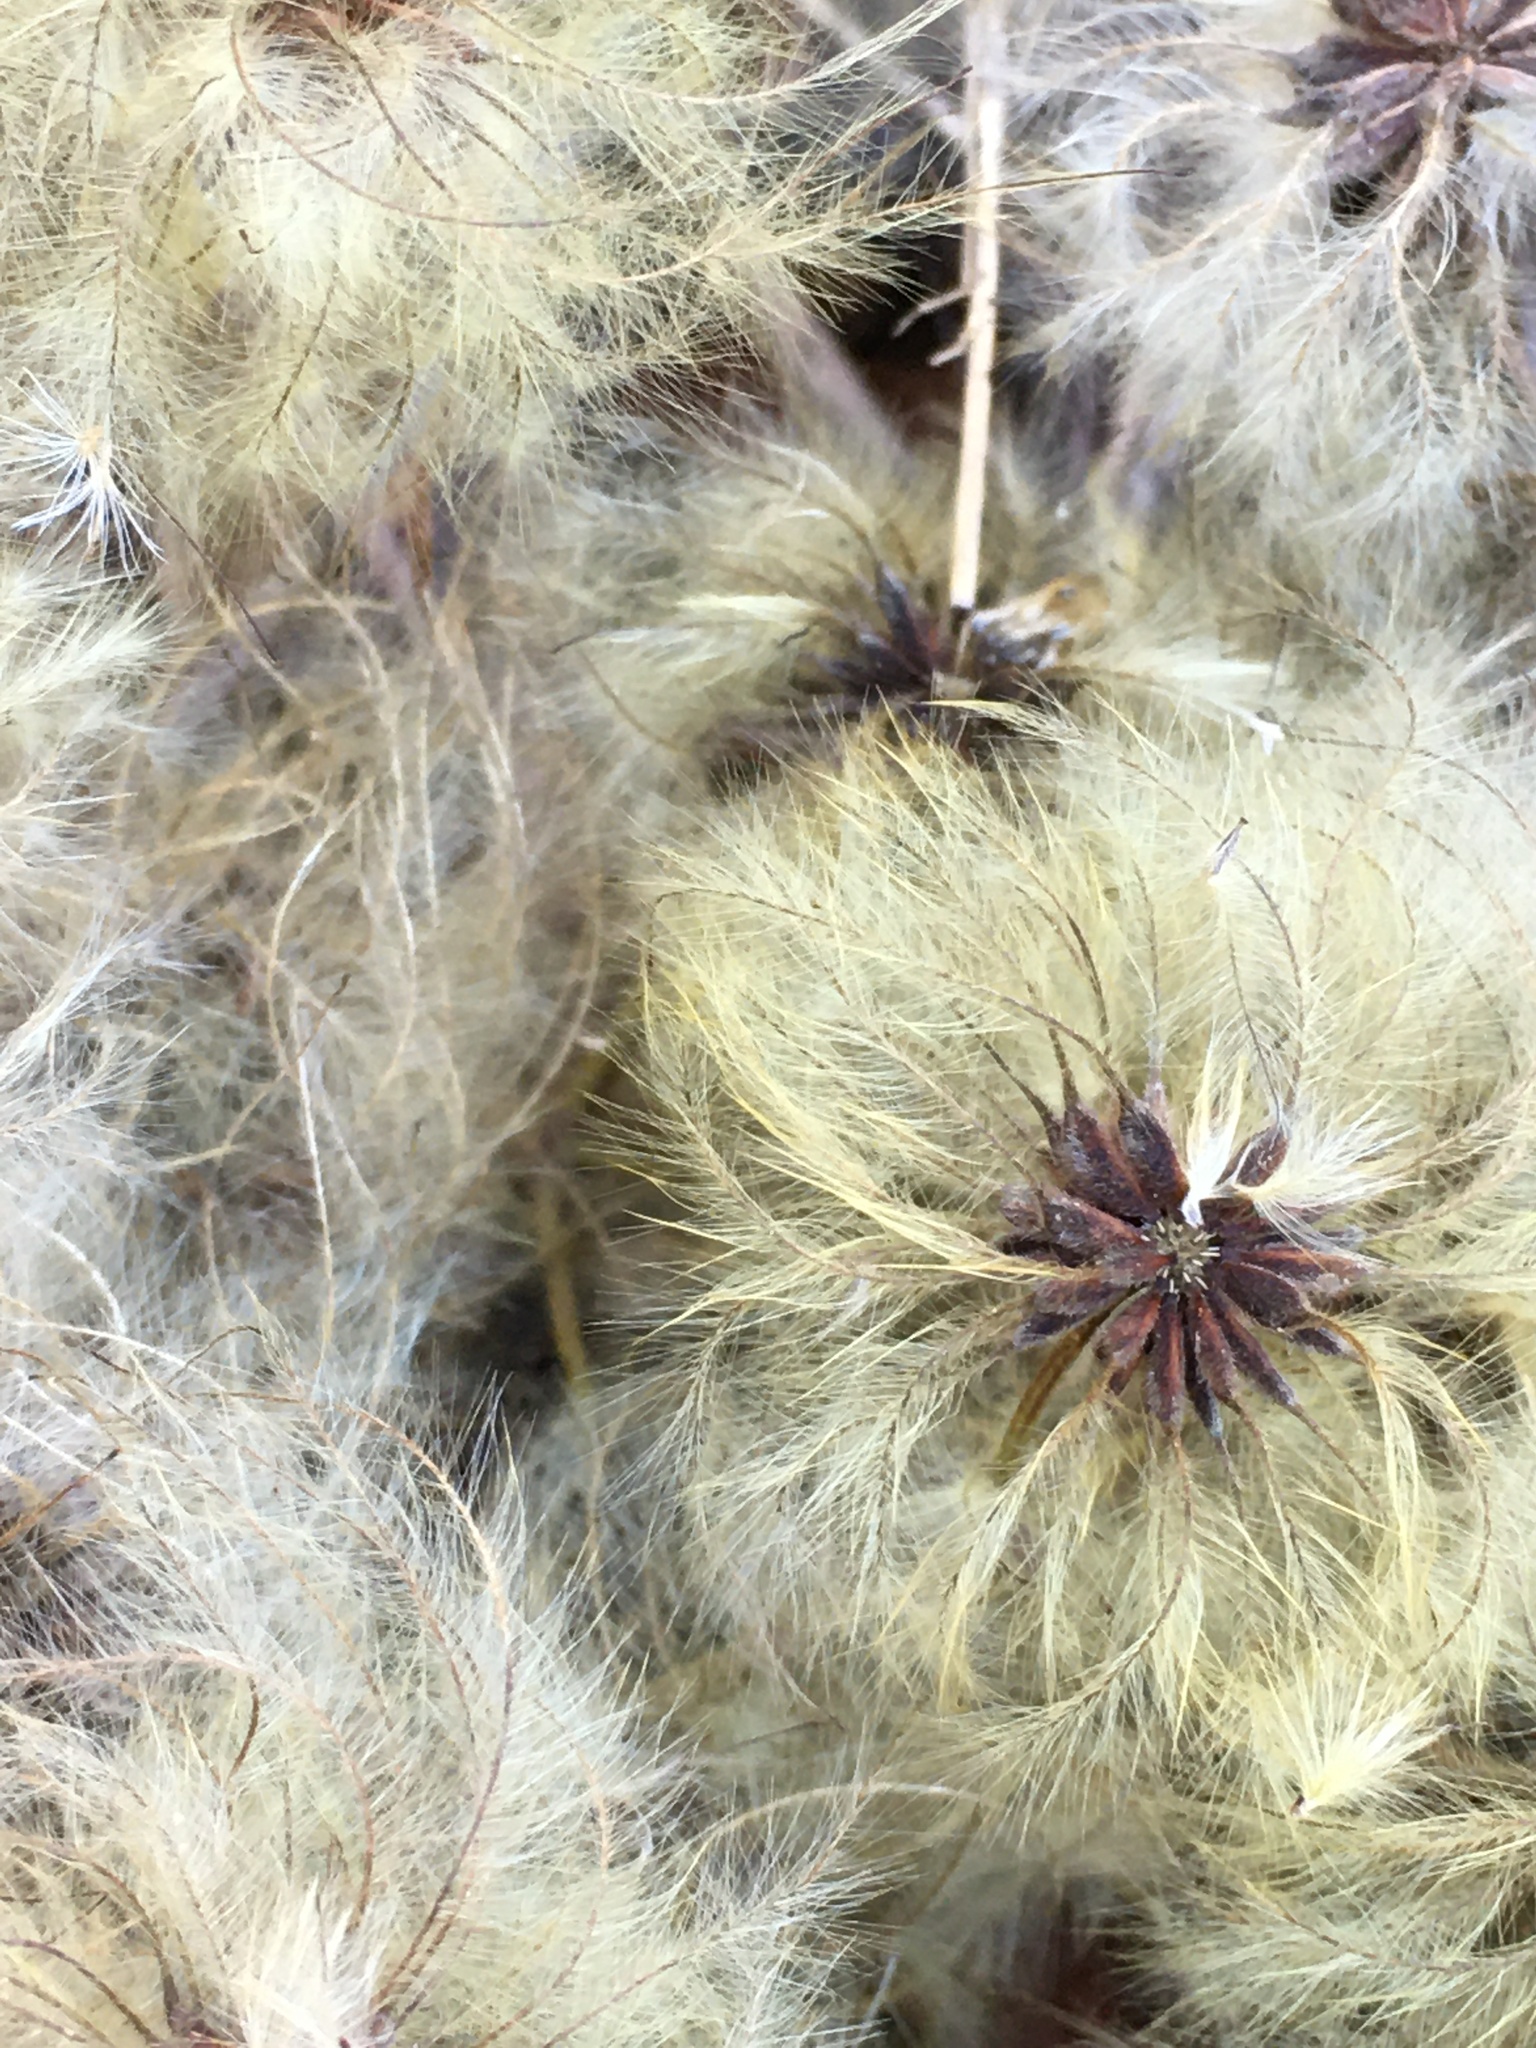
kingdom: Plantae
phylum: Tracheophyta
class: Magnoliopsida
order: Ranunculales
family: Ranunculaceae
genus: Clematis
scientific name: Clematis virginiana
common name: Virgin's-bower
